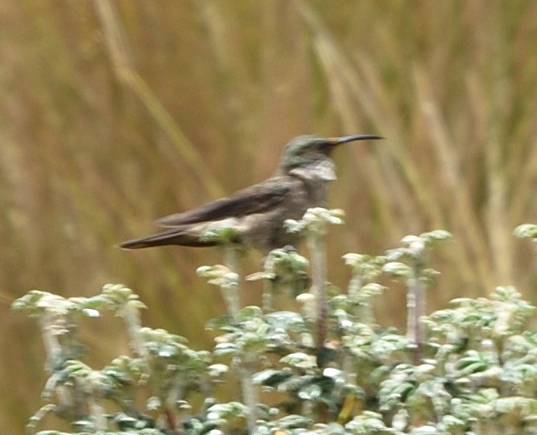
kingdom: Animalia
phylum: Chordata
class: Aves
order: Apodiformes
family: Trochilidae
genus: Oreotrochilus
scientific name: Oreotrochilus chimborazo
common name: Ecuadorian hillstar
